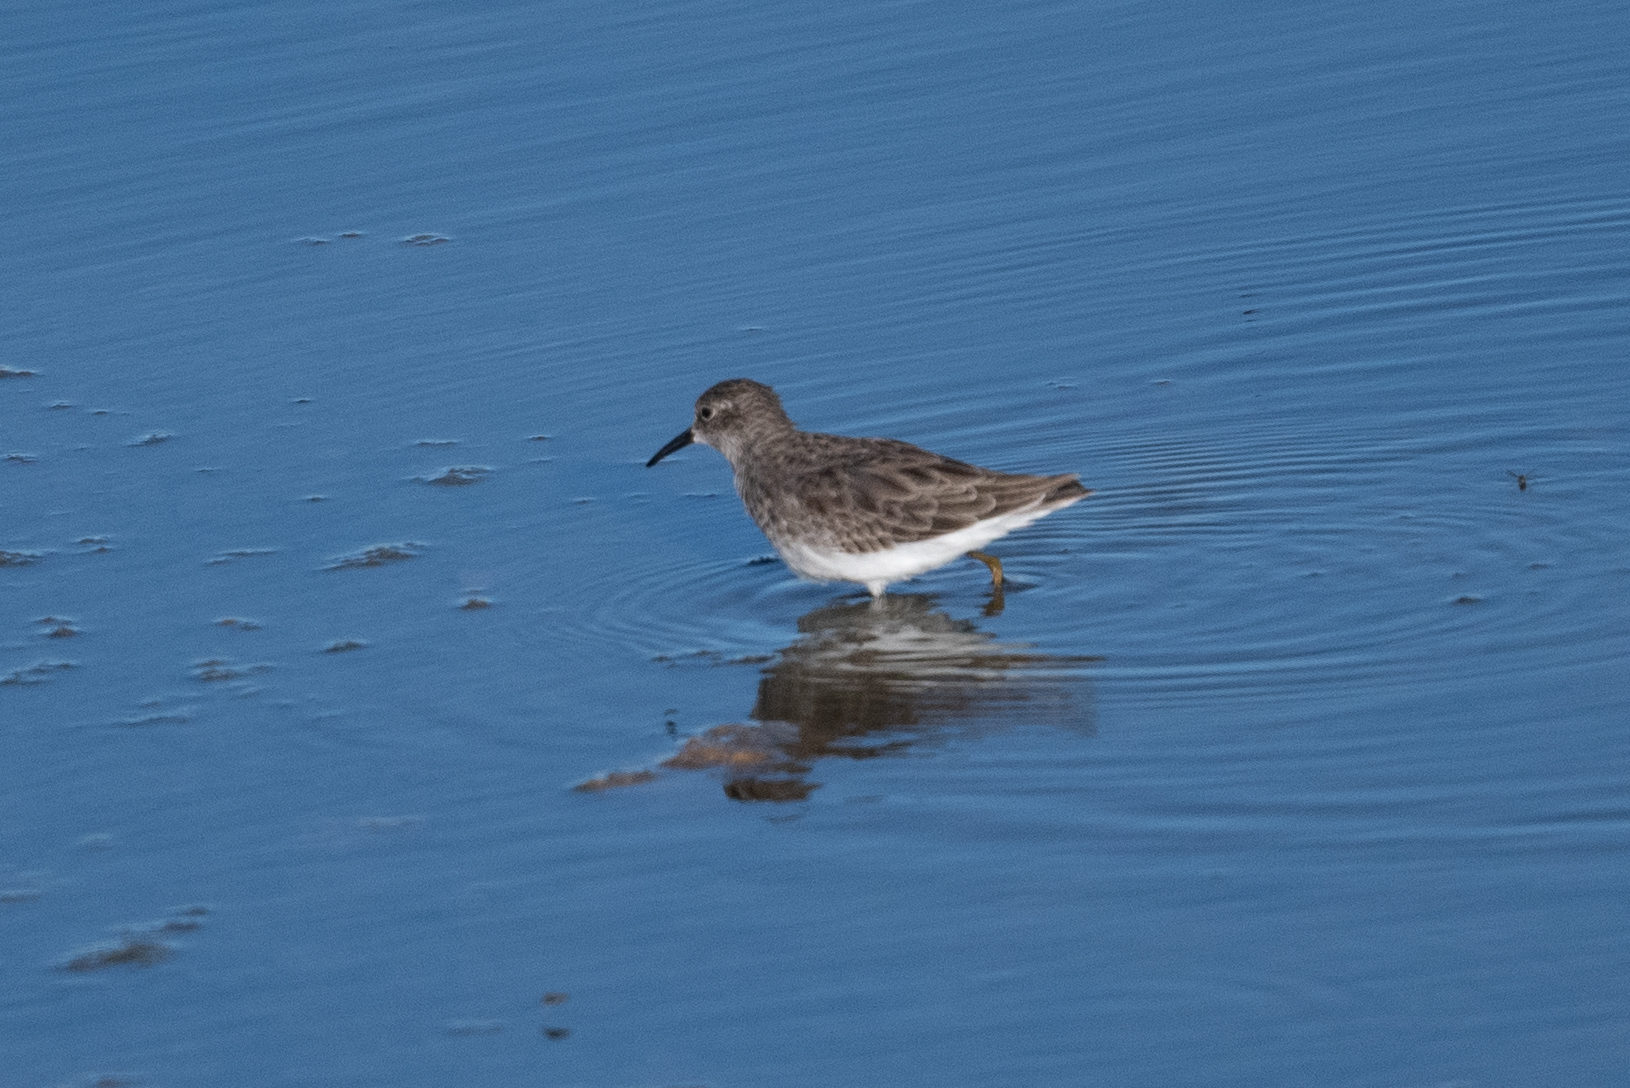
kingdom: Animalia
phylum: Chordata
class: Aves
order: Charadriiformes
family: Scolopacidae
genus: Calidris
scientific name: Calidris minutilla
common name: Least sandpiper
